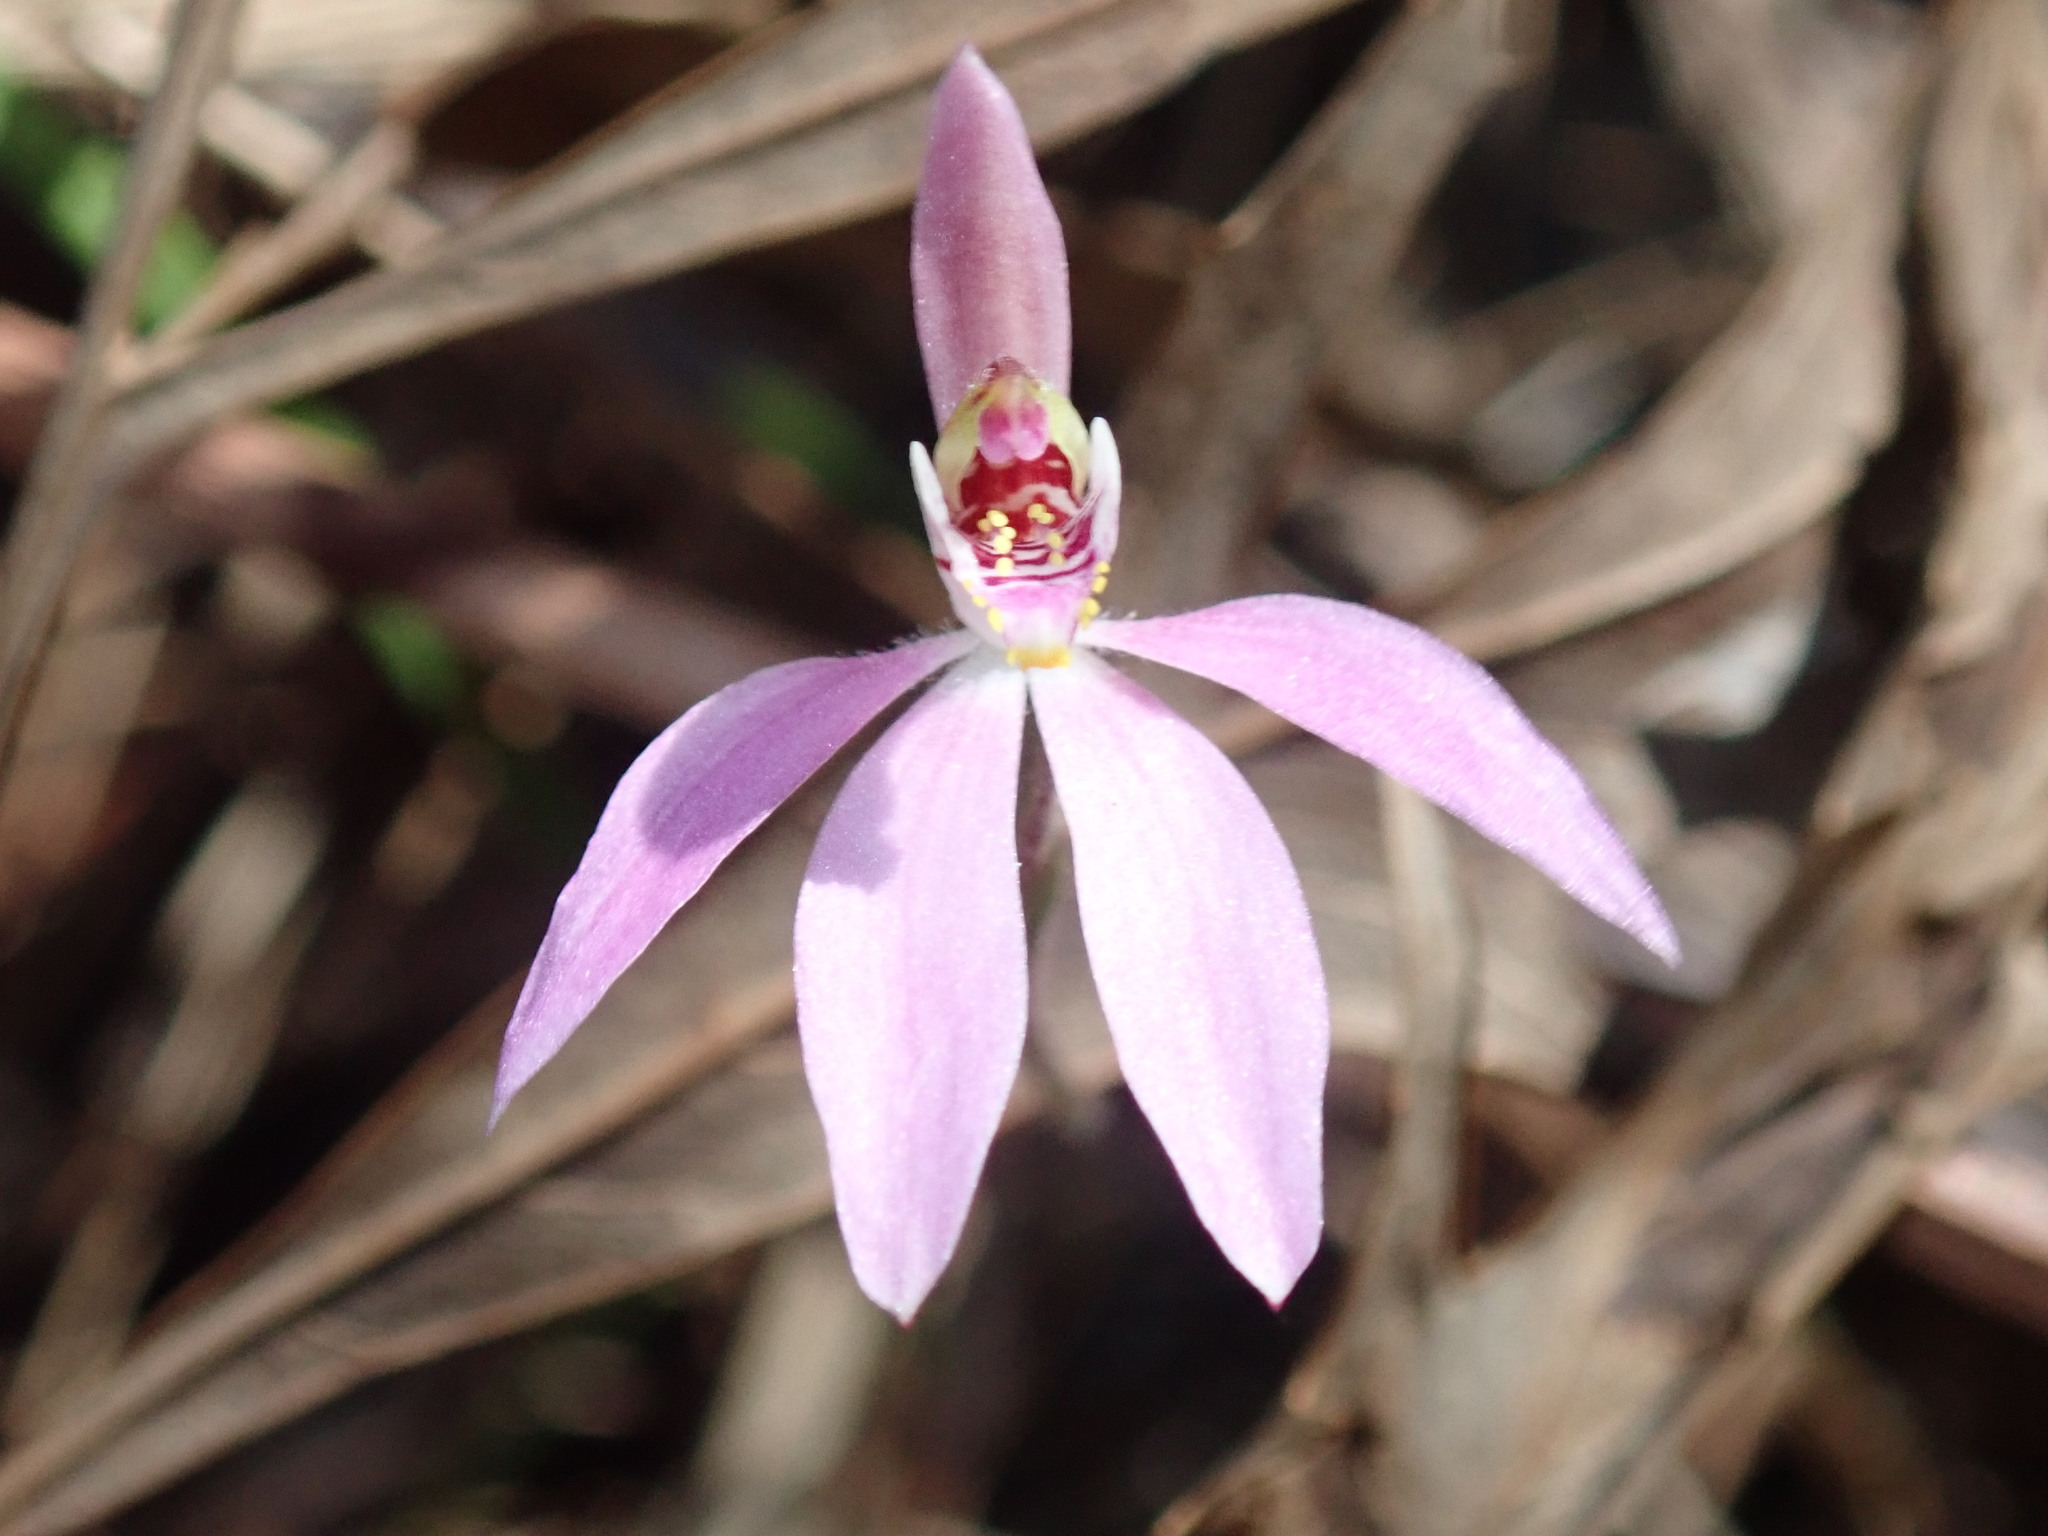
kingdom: Plantae
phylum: Tracheophyta
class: Liliopsida
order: Asparagales
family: Orchidaceae
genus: Caladenia
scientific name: Caladenia carnea
